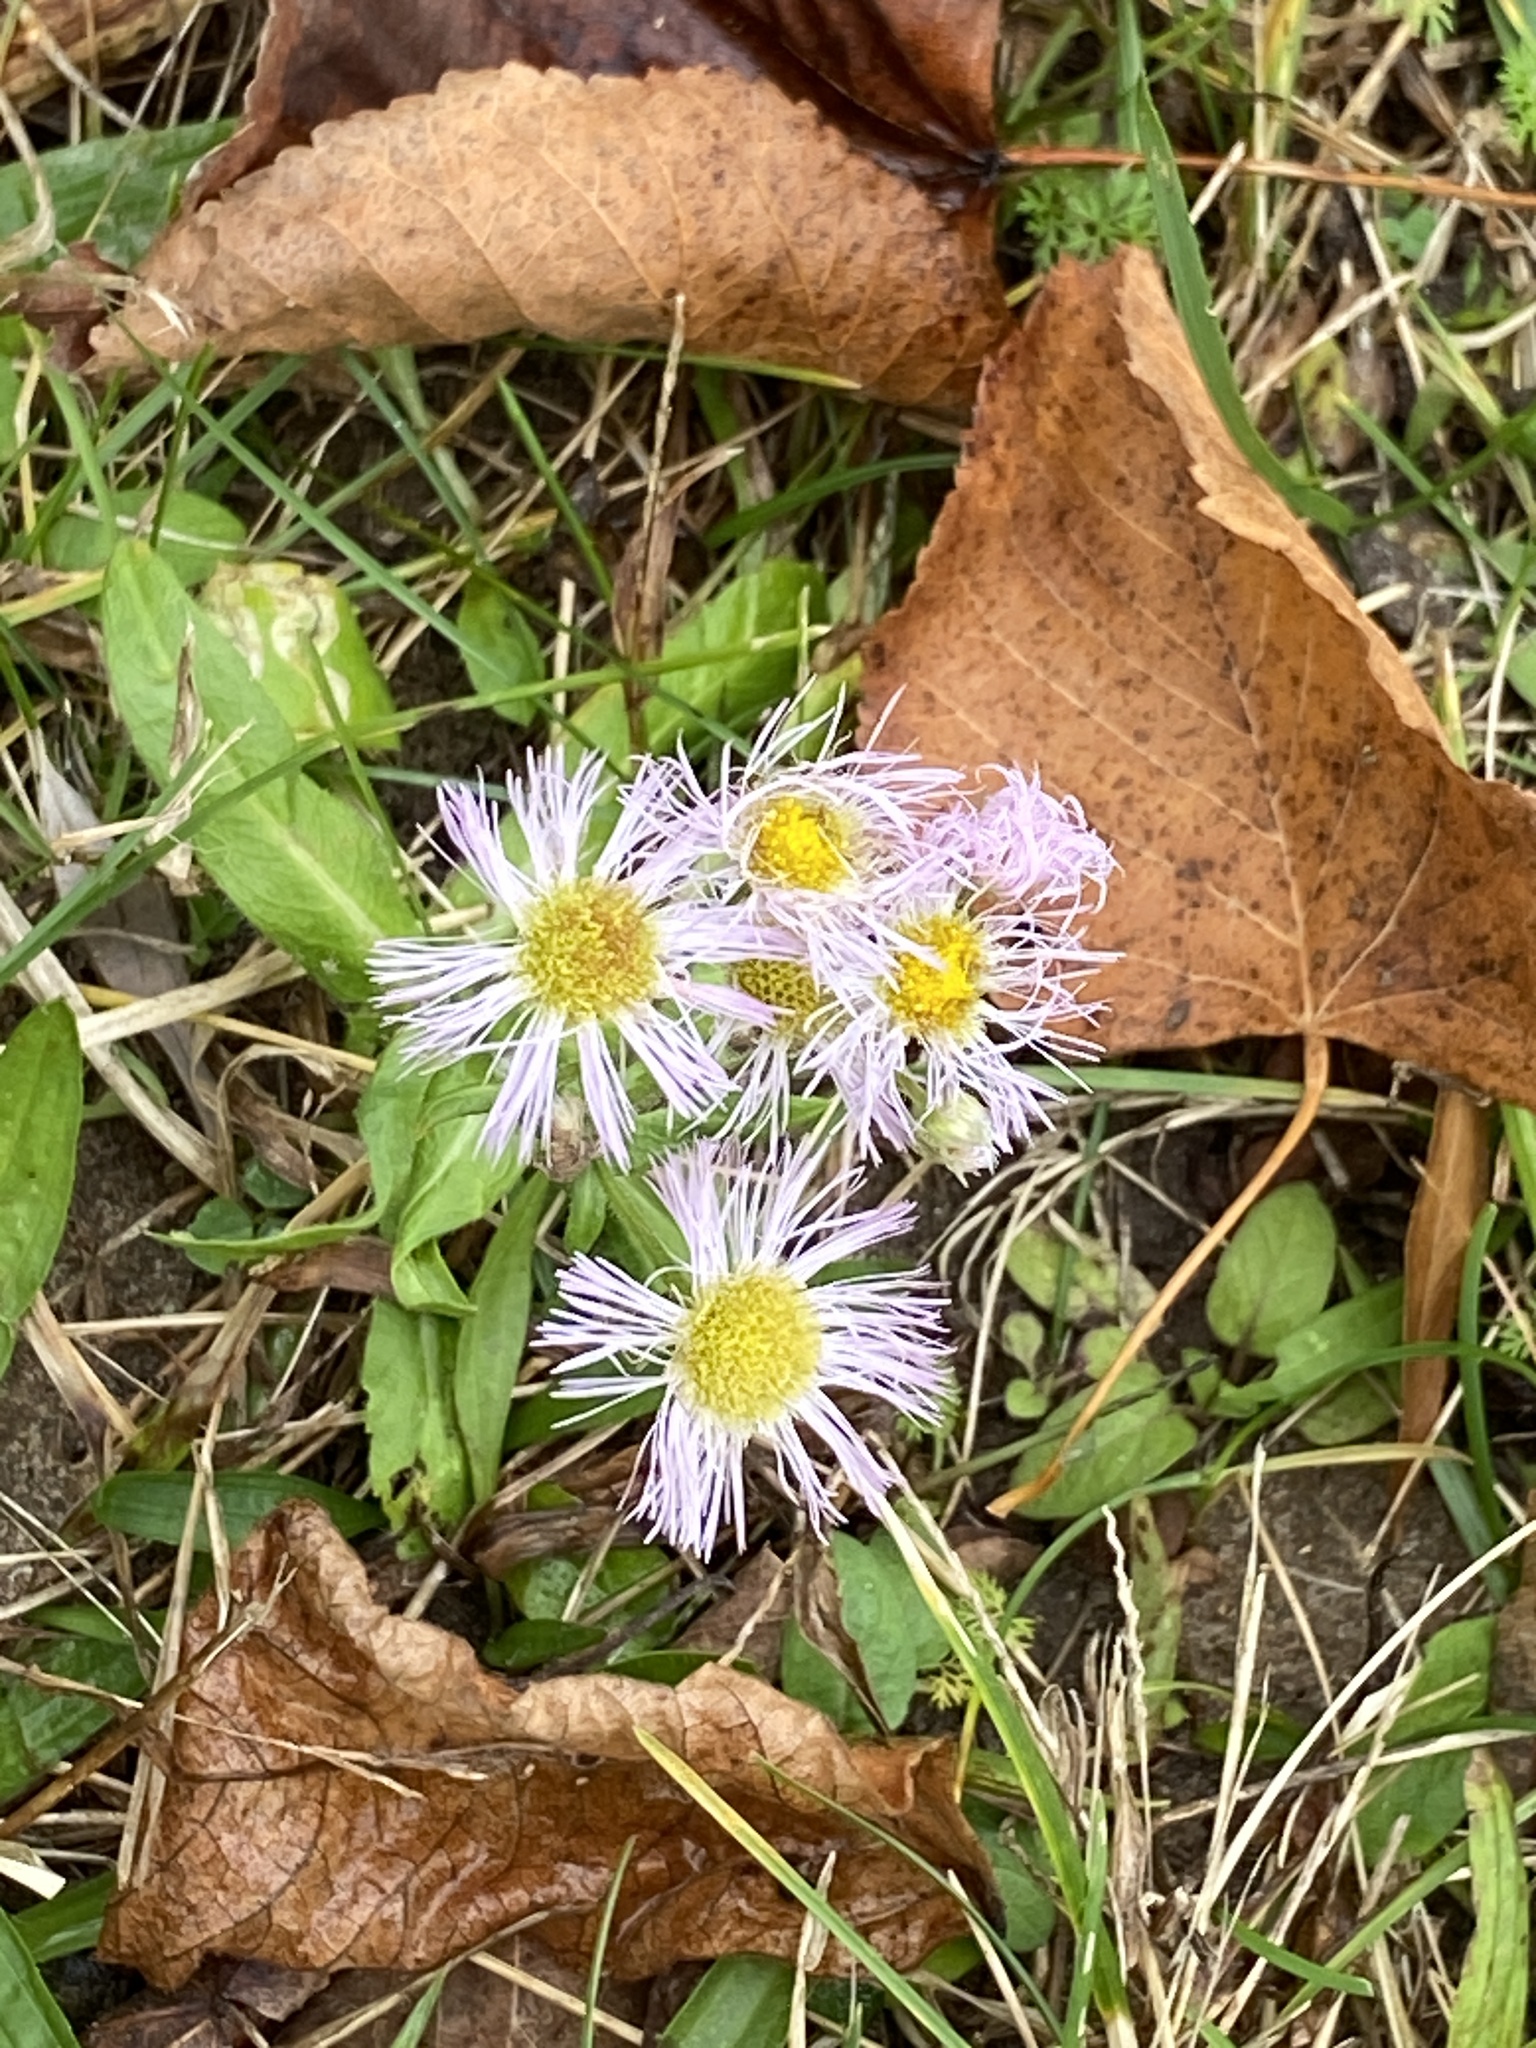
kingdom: Plantae
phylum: Tracheophyta
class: Magnoliopsida
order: Asterales
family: Asteraceae
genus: Erigeron
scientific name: Erigeron philadelphicus
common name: Robin's-plantain
